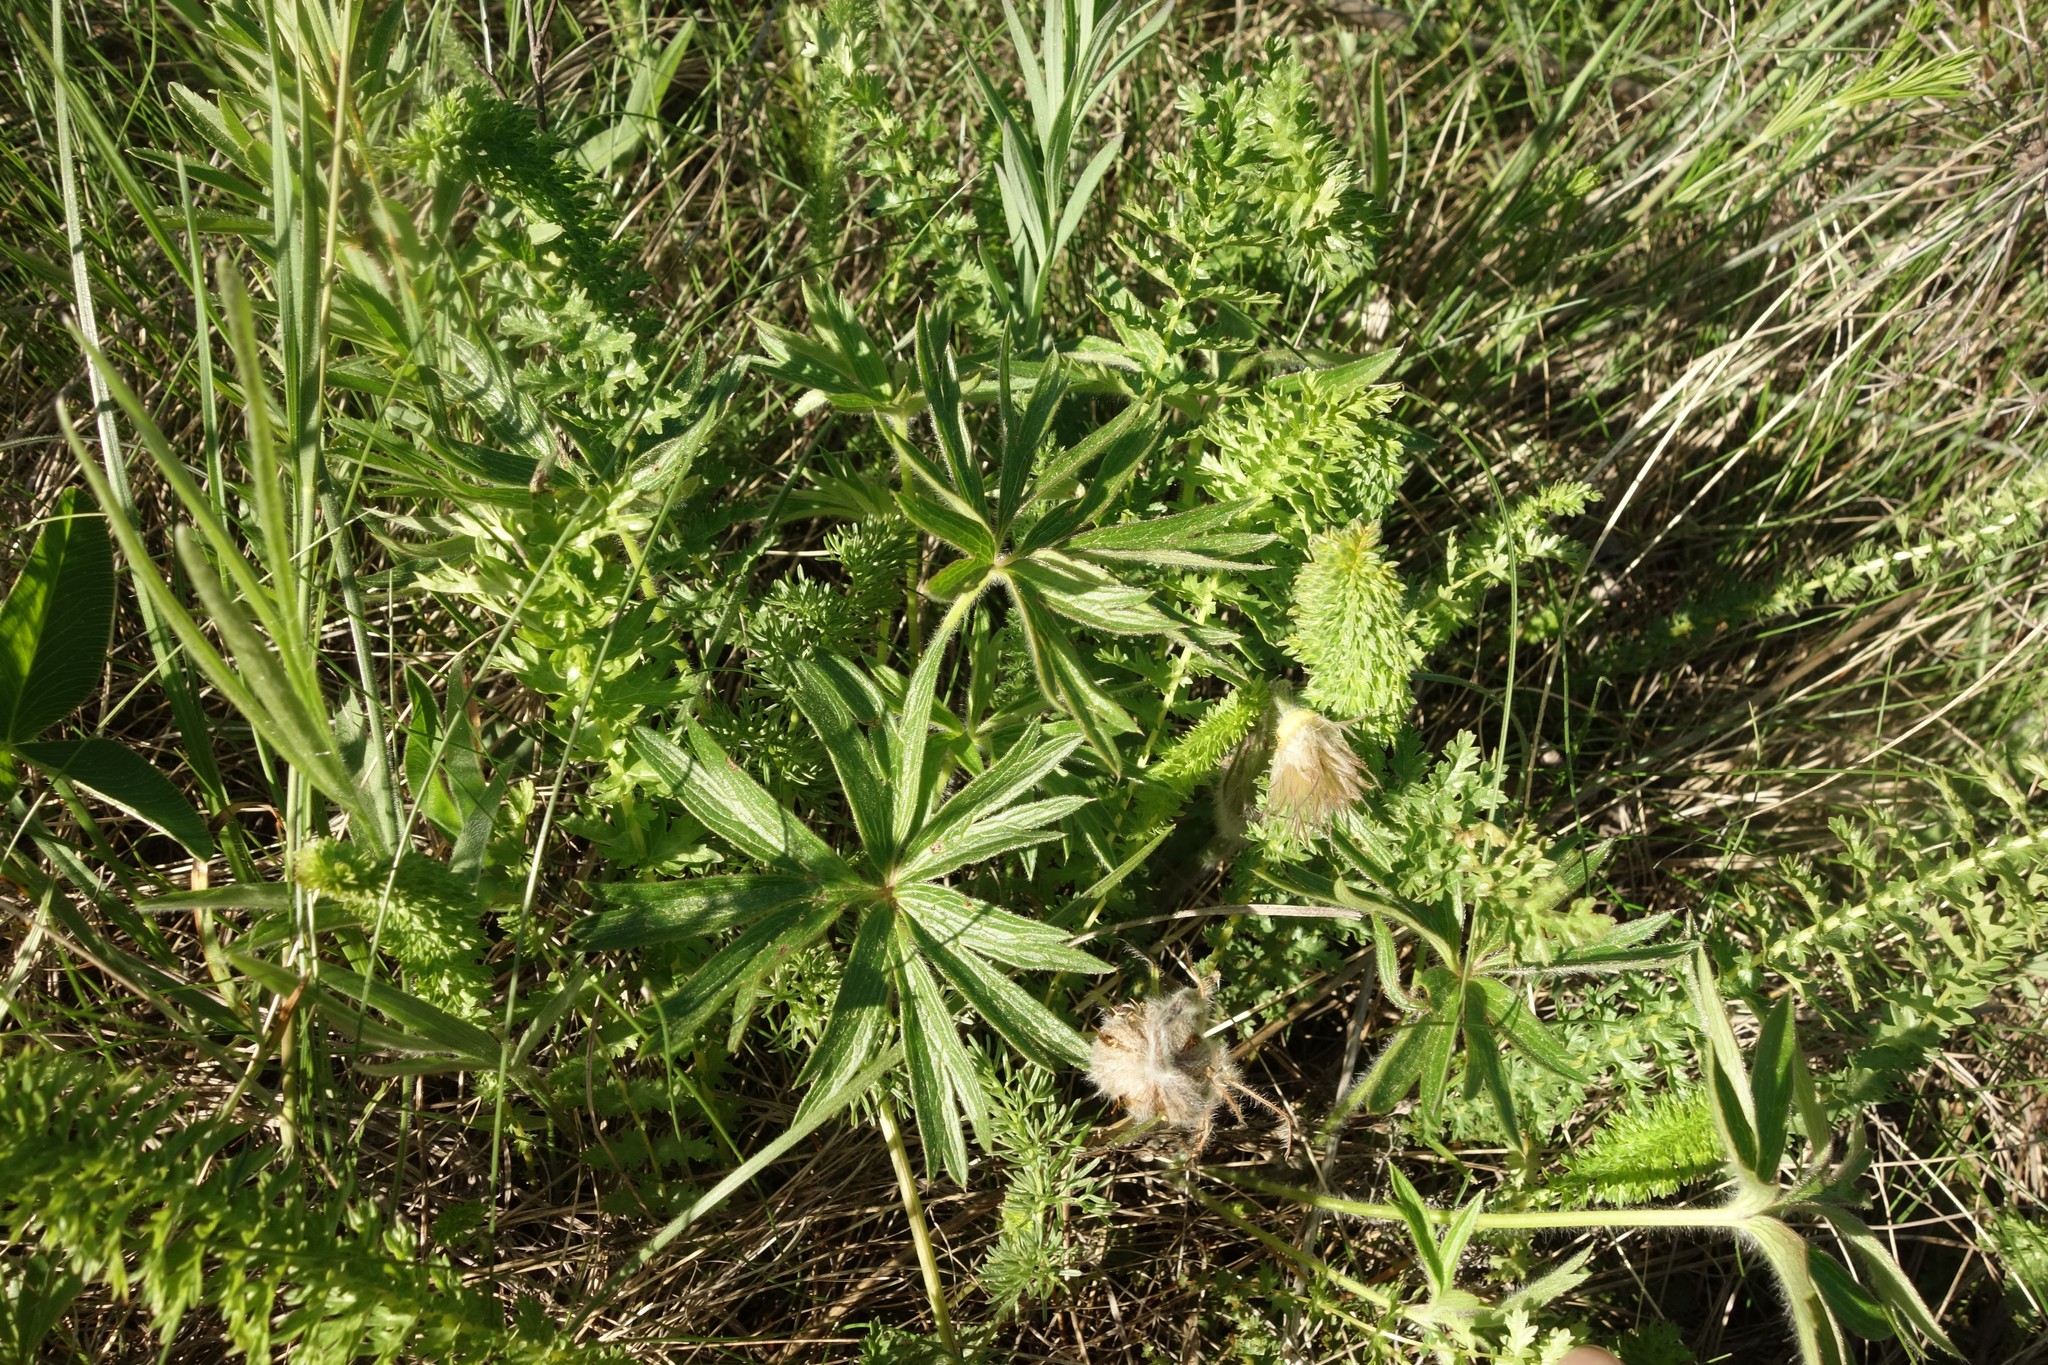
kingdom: Plantae
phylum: Tracheophyta
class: Magnoliopsida
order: Ranunculales
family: Ranunculaceae
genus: Pulsatilla
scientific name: Pulsatilla patens
